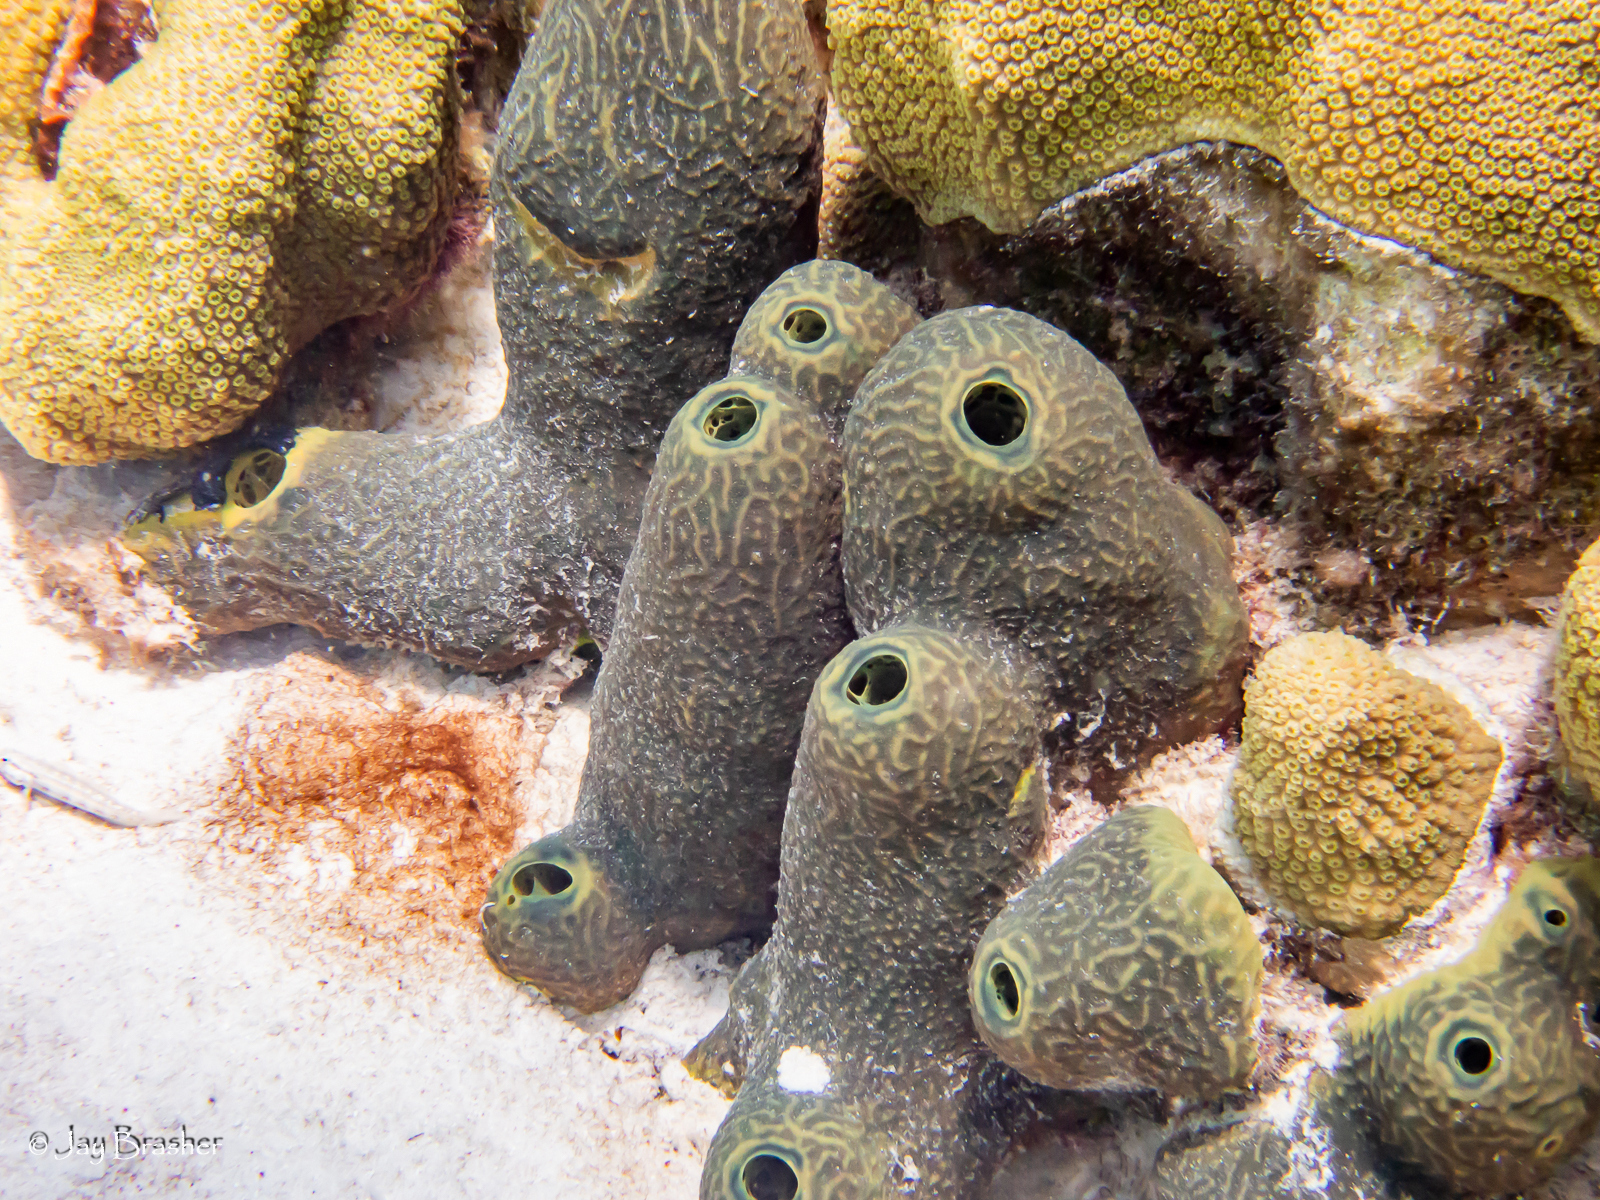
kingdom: Animalia
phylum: Porifera
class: Demospongiae
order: Verongiida
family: Aplysinidae
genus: Verongula
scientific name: Verongula reiswigi
